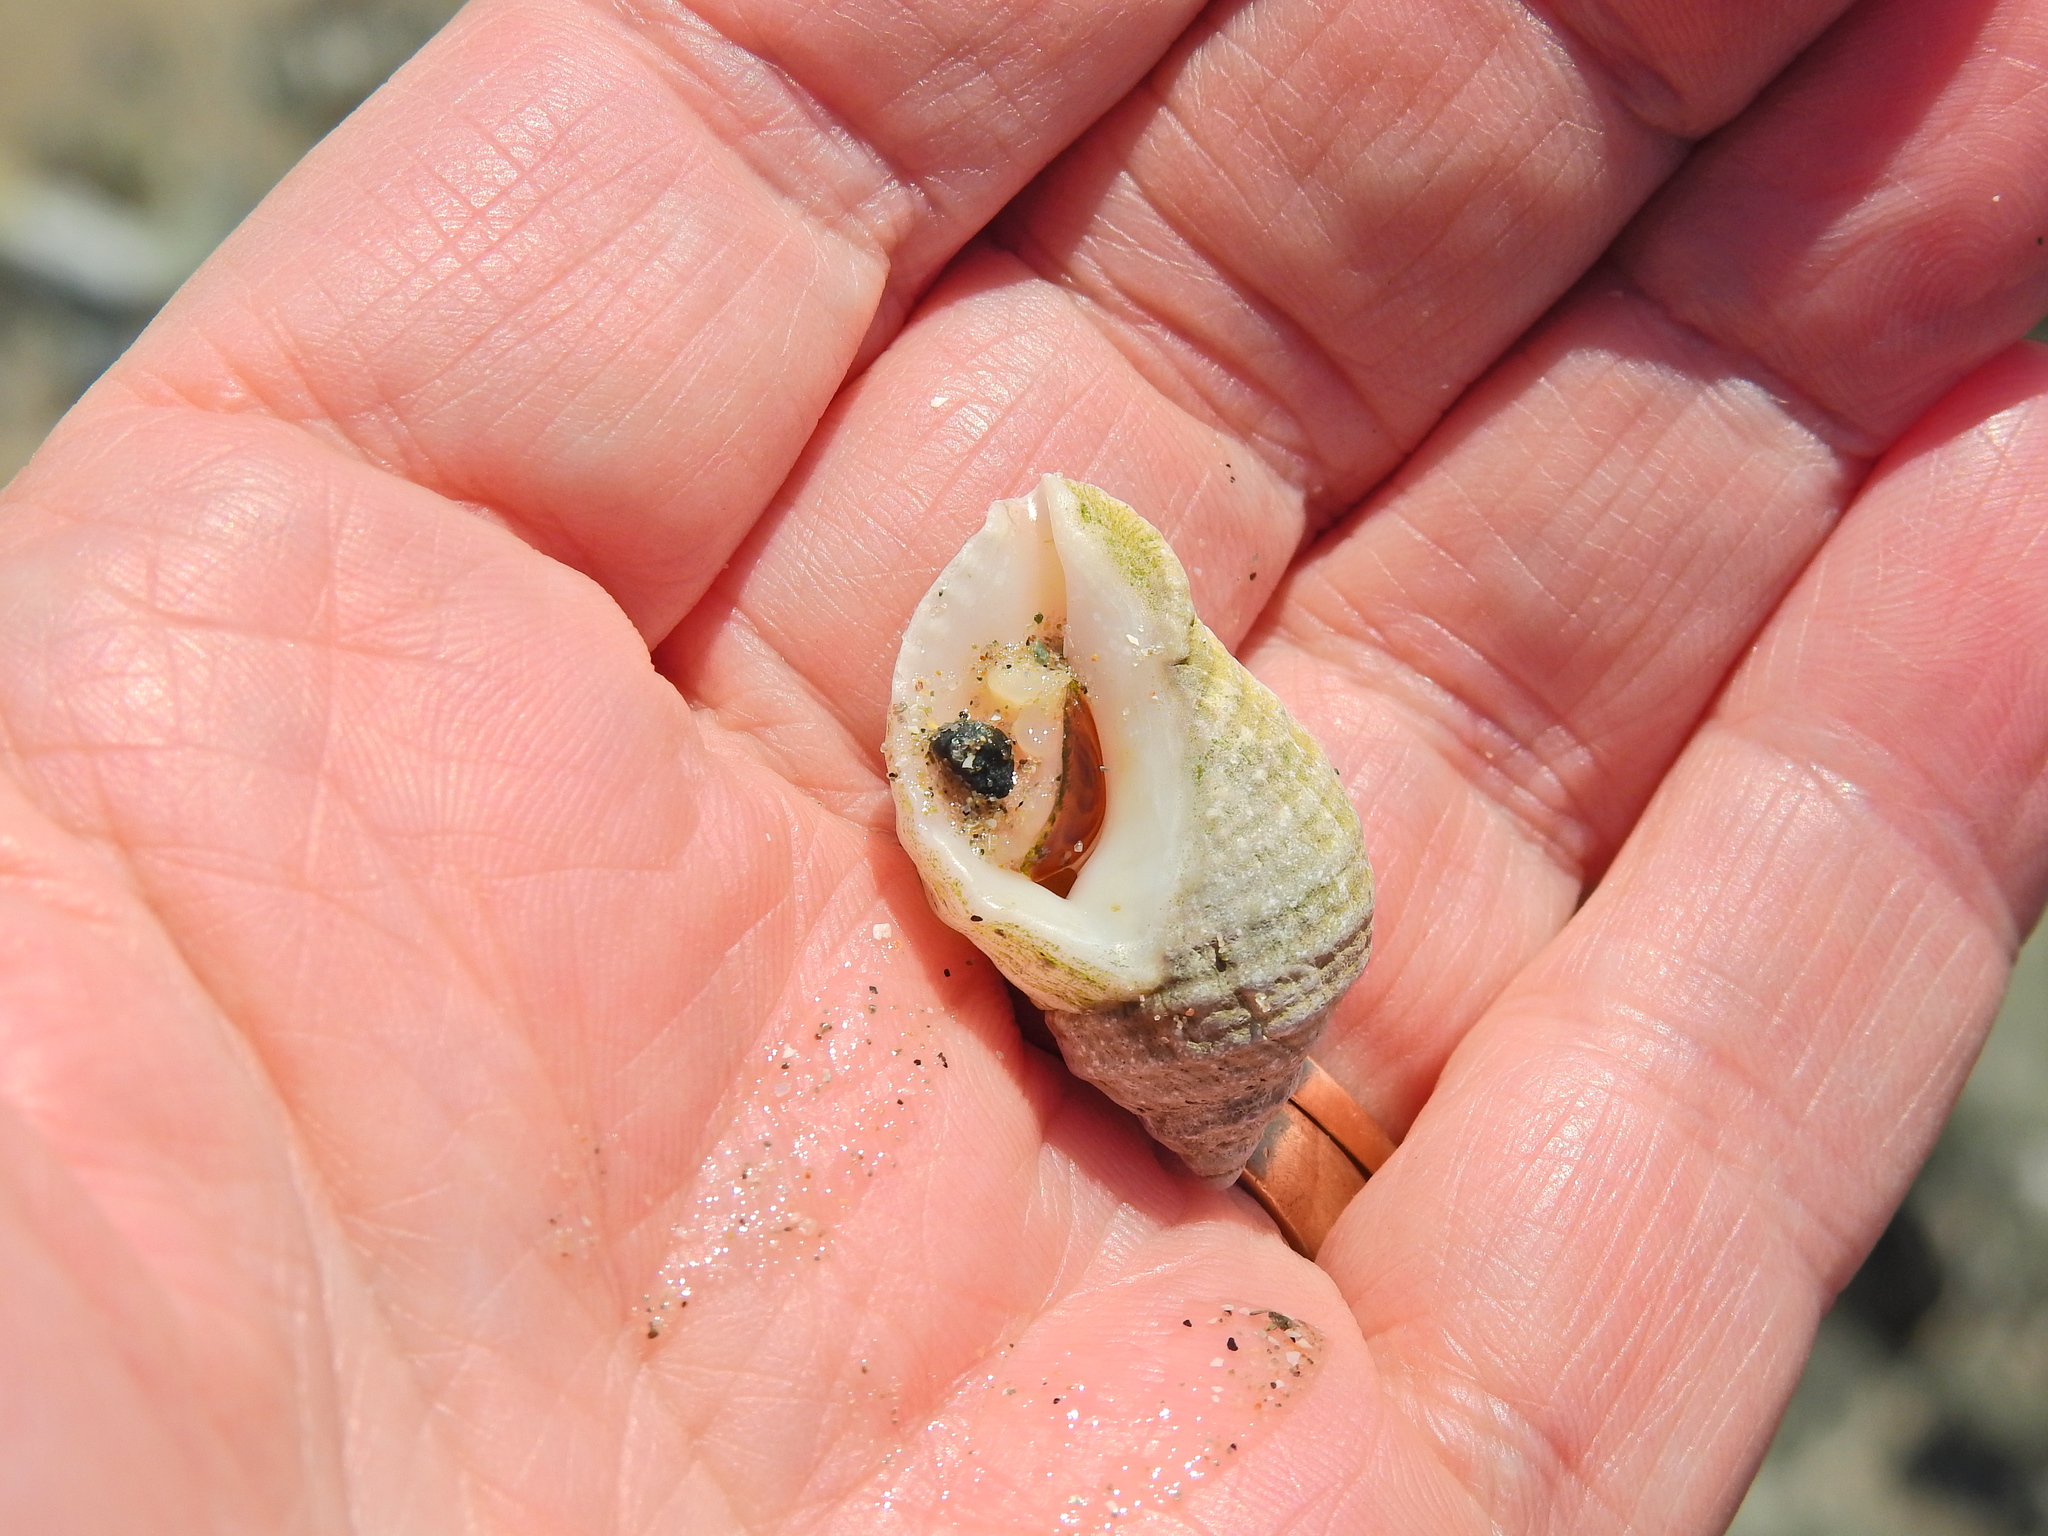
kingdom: Animalia
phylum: Mollusca
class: Gastropoda
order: Neogastropoda
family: Muricidae
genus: Nucella
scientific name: Nucella lapillus
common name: Dog whelk
